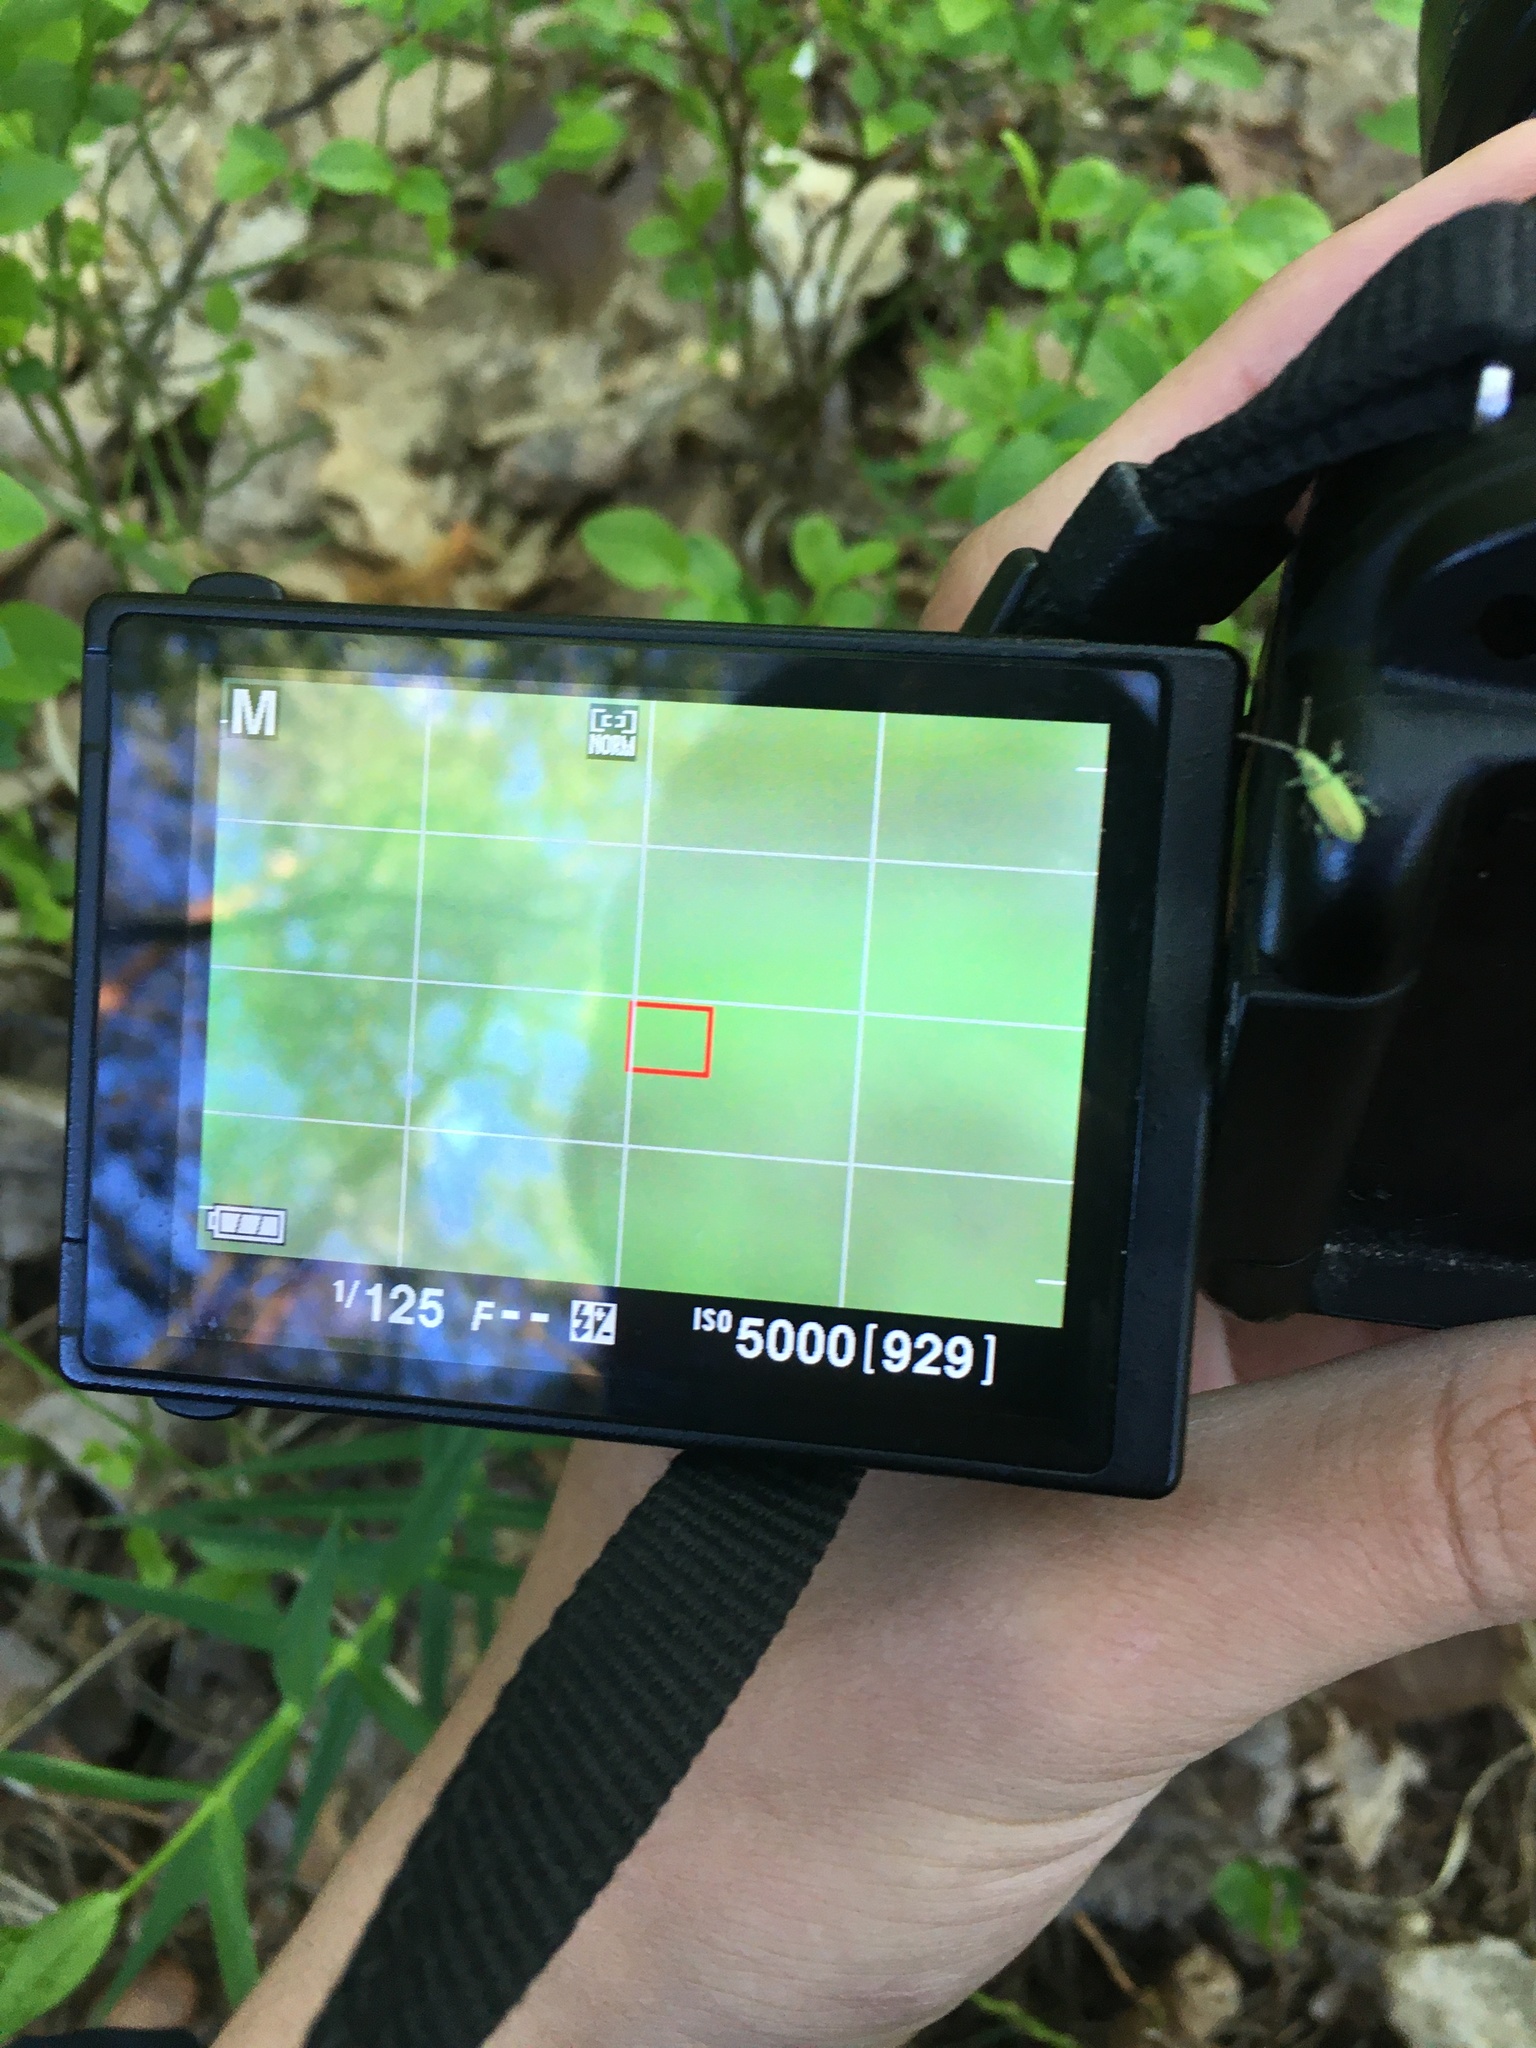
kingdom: Animalia
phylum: Arthropoda
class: Insecta
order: Coleoptera
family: Curculionidae
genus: Phyllobius
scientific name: Phyllobius
